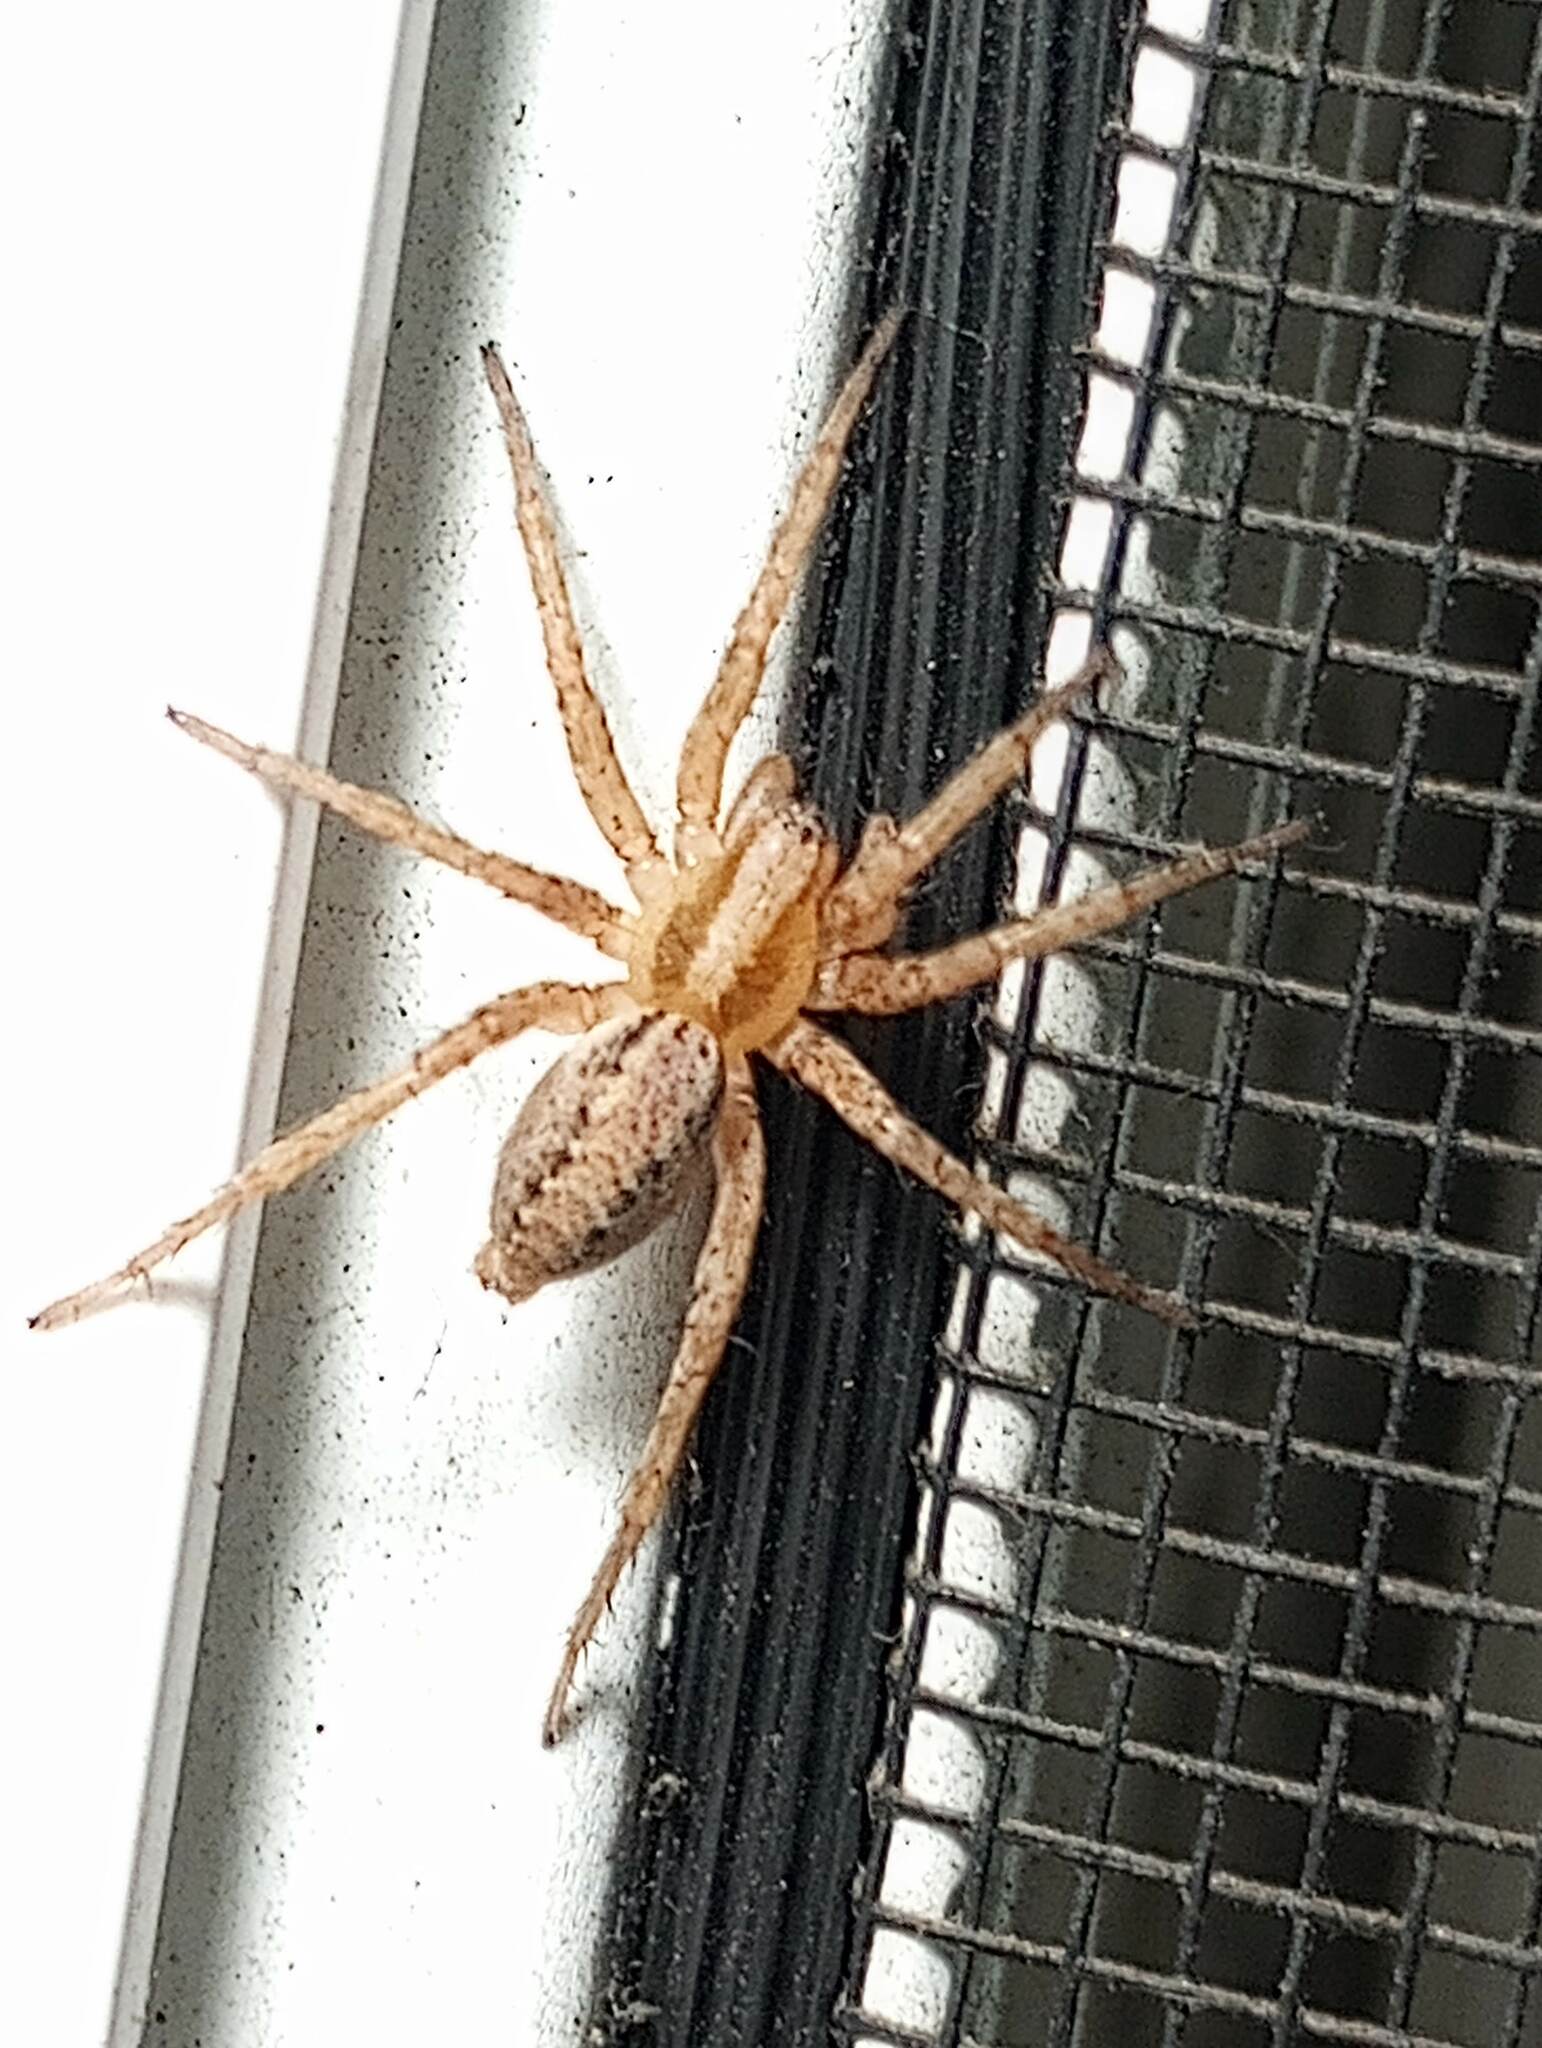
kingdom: Animalia
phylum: Arthropoda
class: Arachnida
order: Araneae
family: Agelenidae
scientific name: Agelenidae
